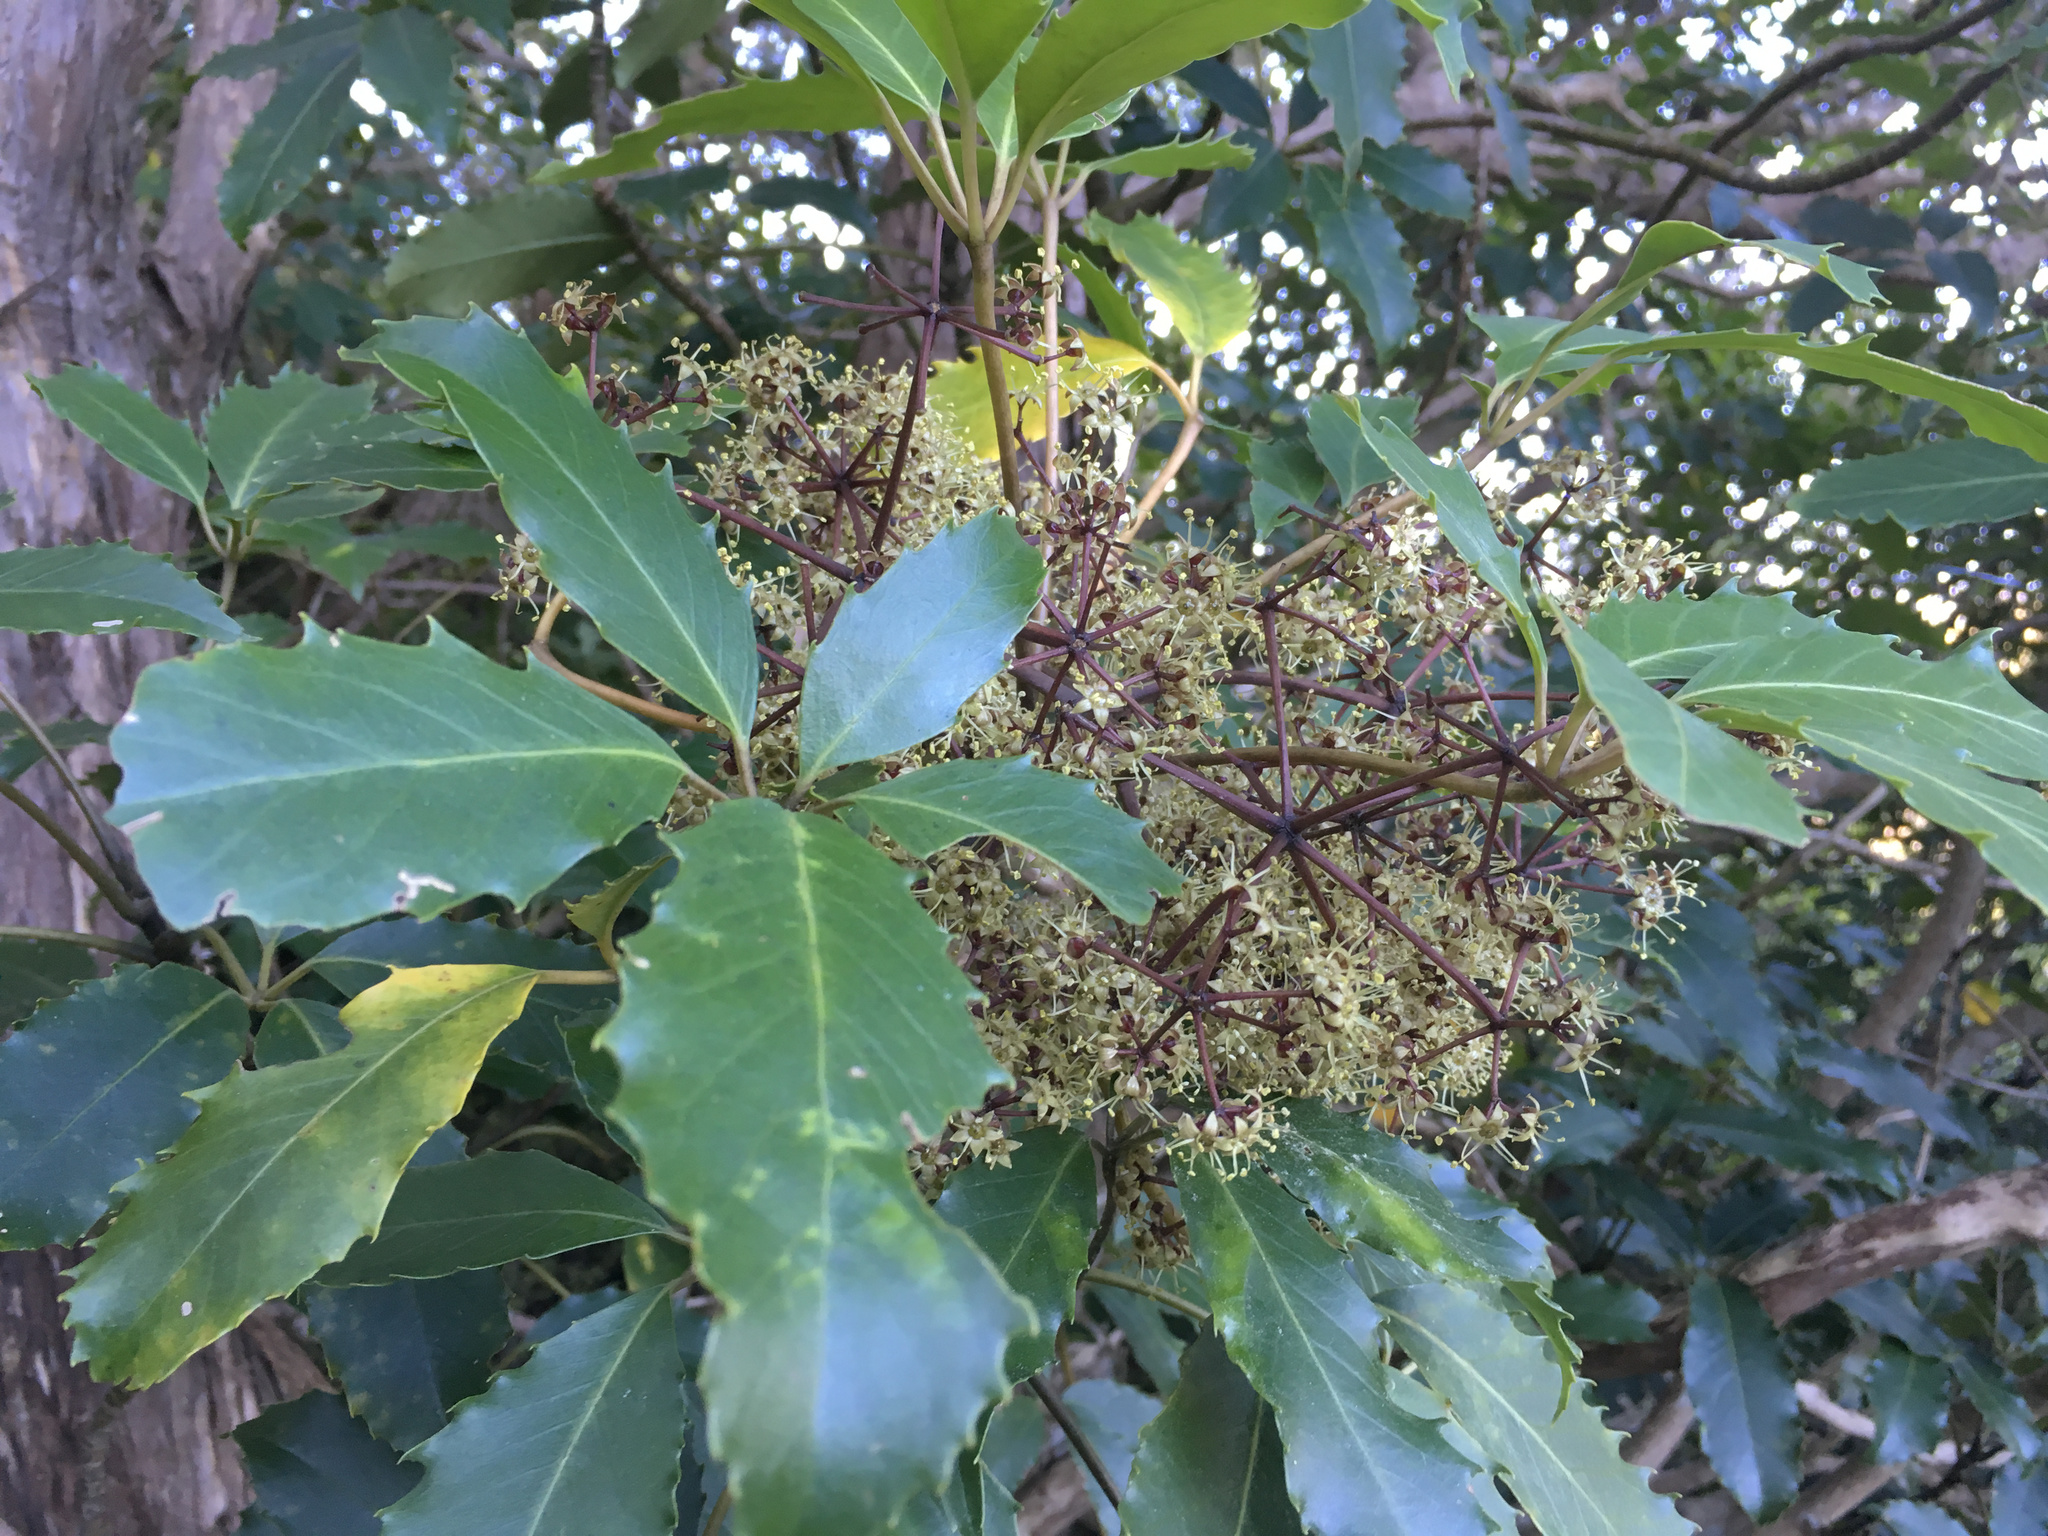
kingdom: Plantae
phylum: Tracheophyta
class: Magnoliopsida
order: Apiales
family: Araliaceae
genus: Neopanax
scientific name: Neopanax arboreus
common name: Five-fingers
